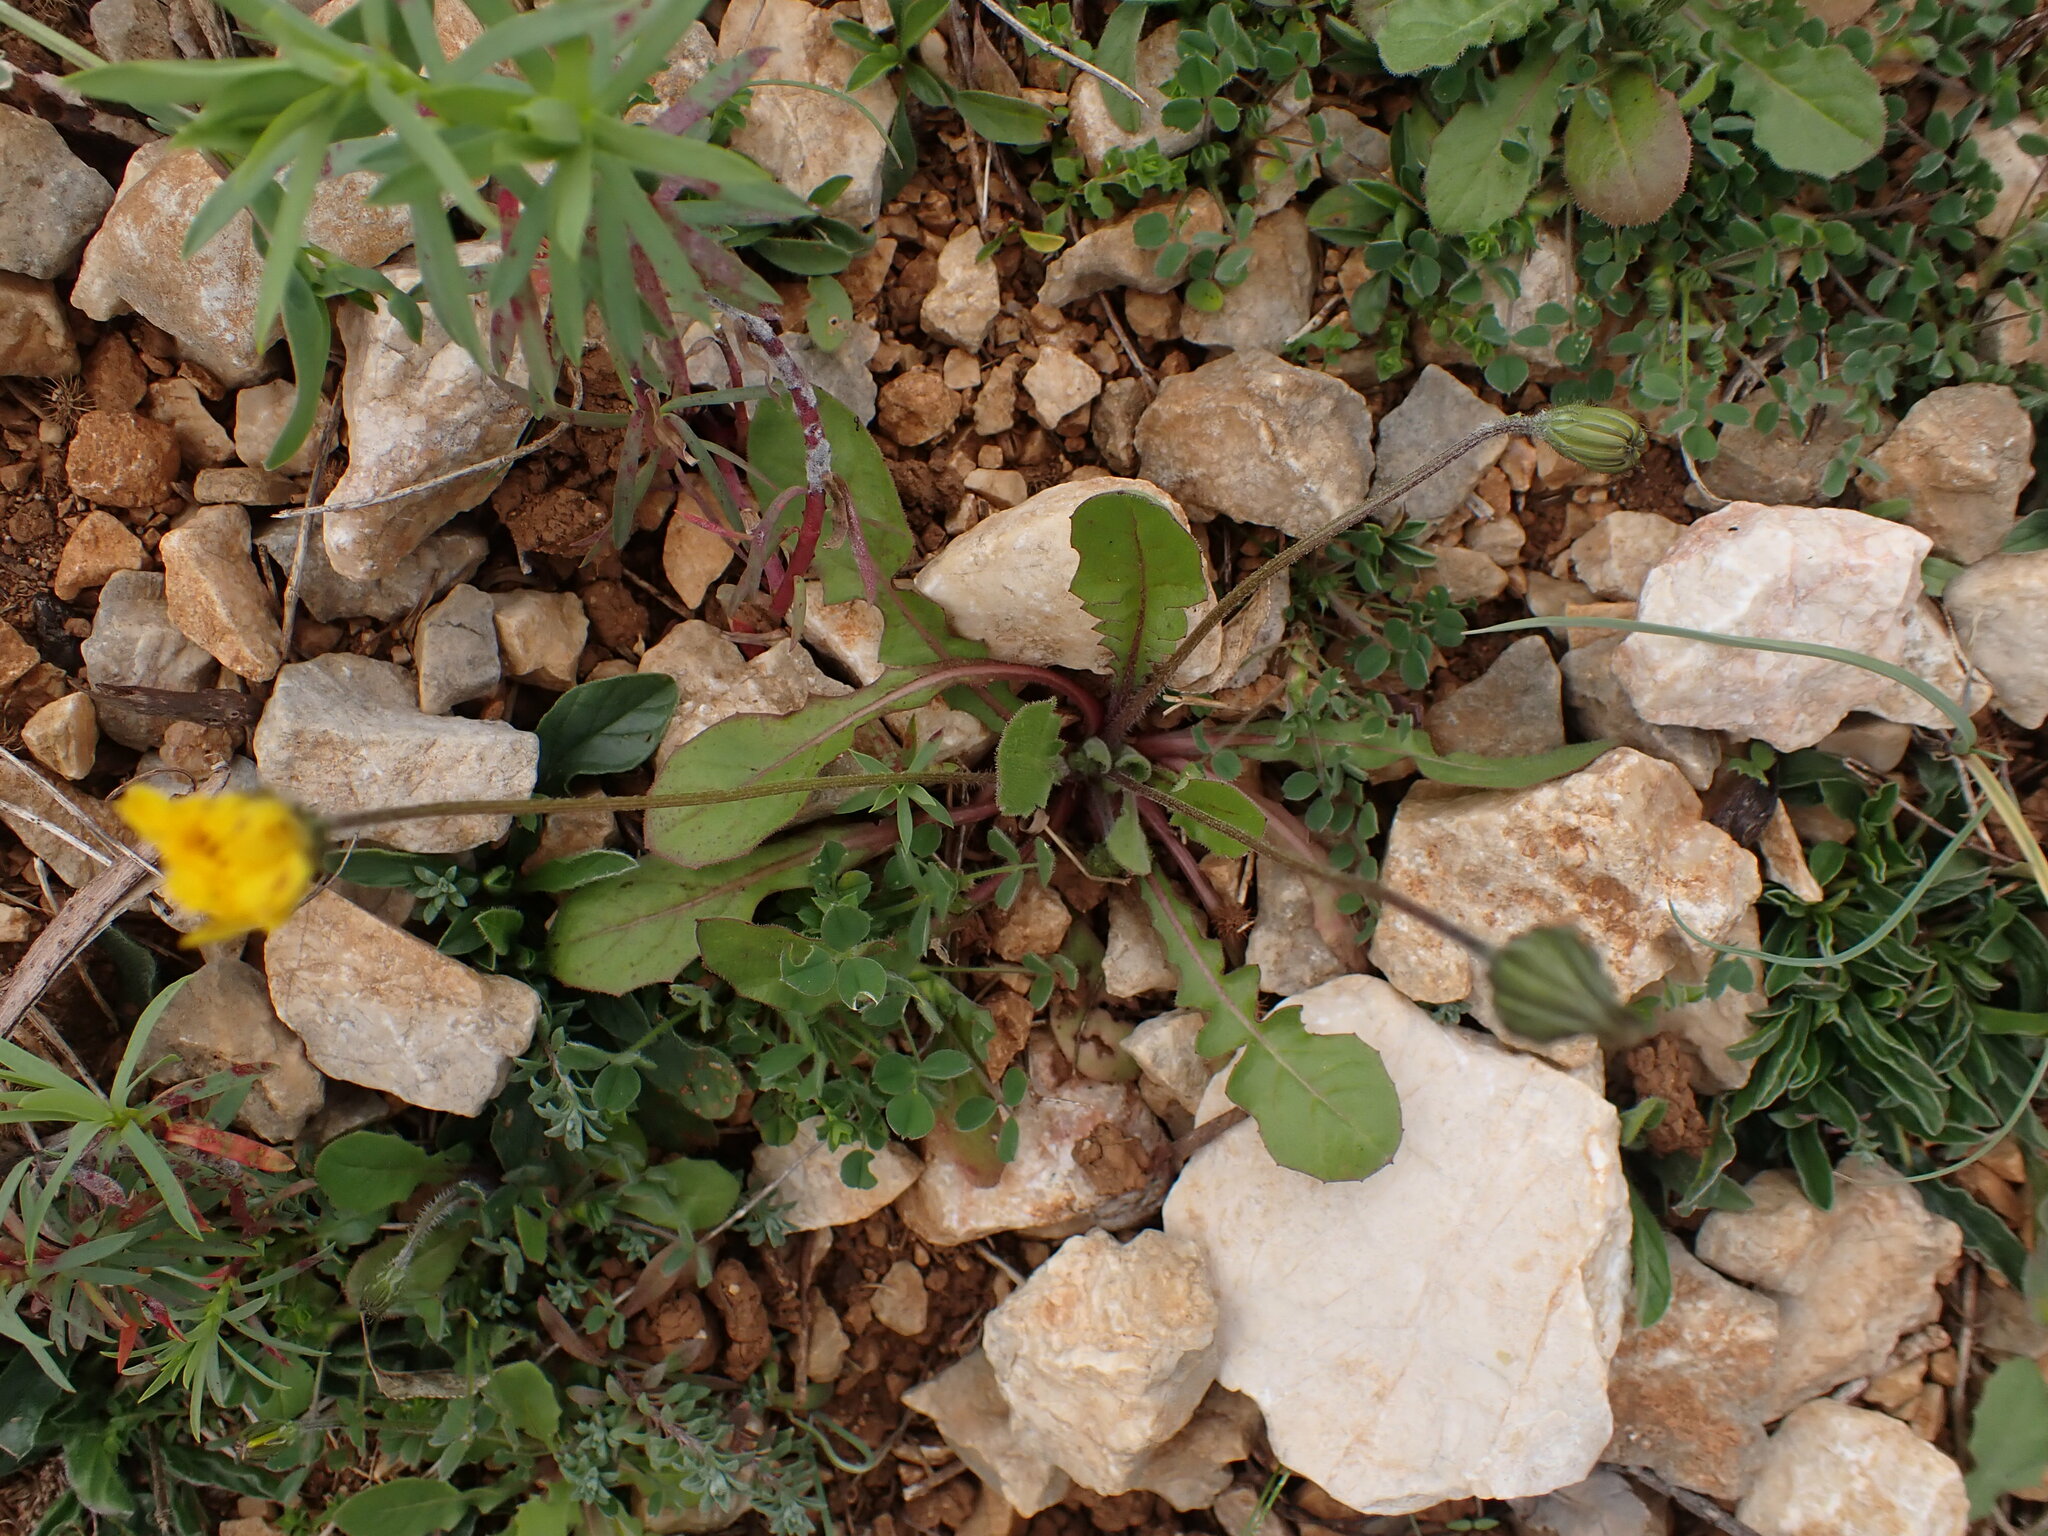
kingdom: Plantae
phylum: Tracheophyta
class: Magnoliopsida
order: Asterales
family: Asteraceae
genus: Crepis
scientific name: Crepis sancta
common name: Hawk's-beard
